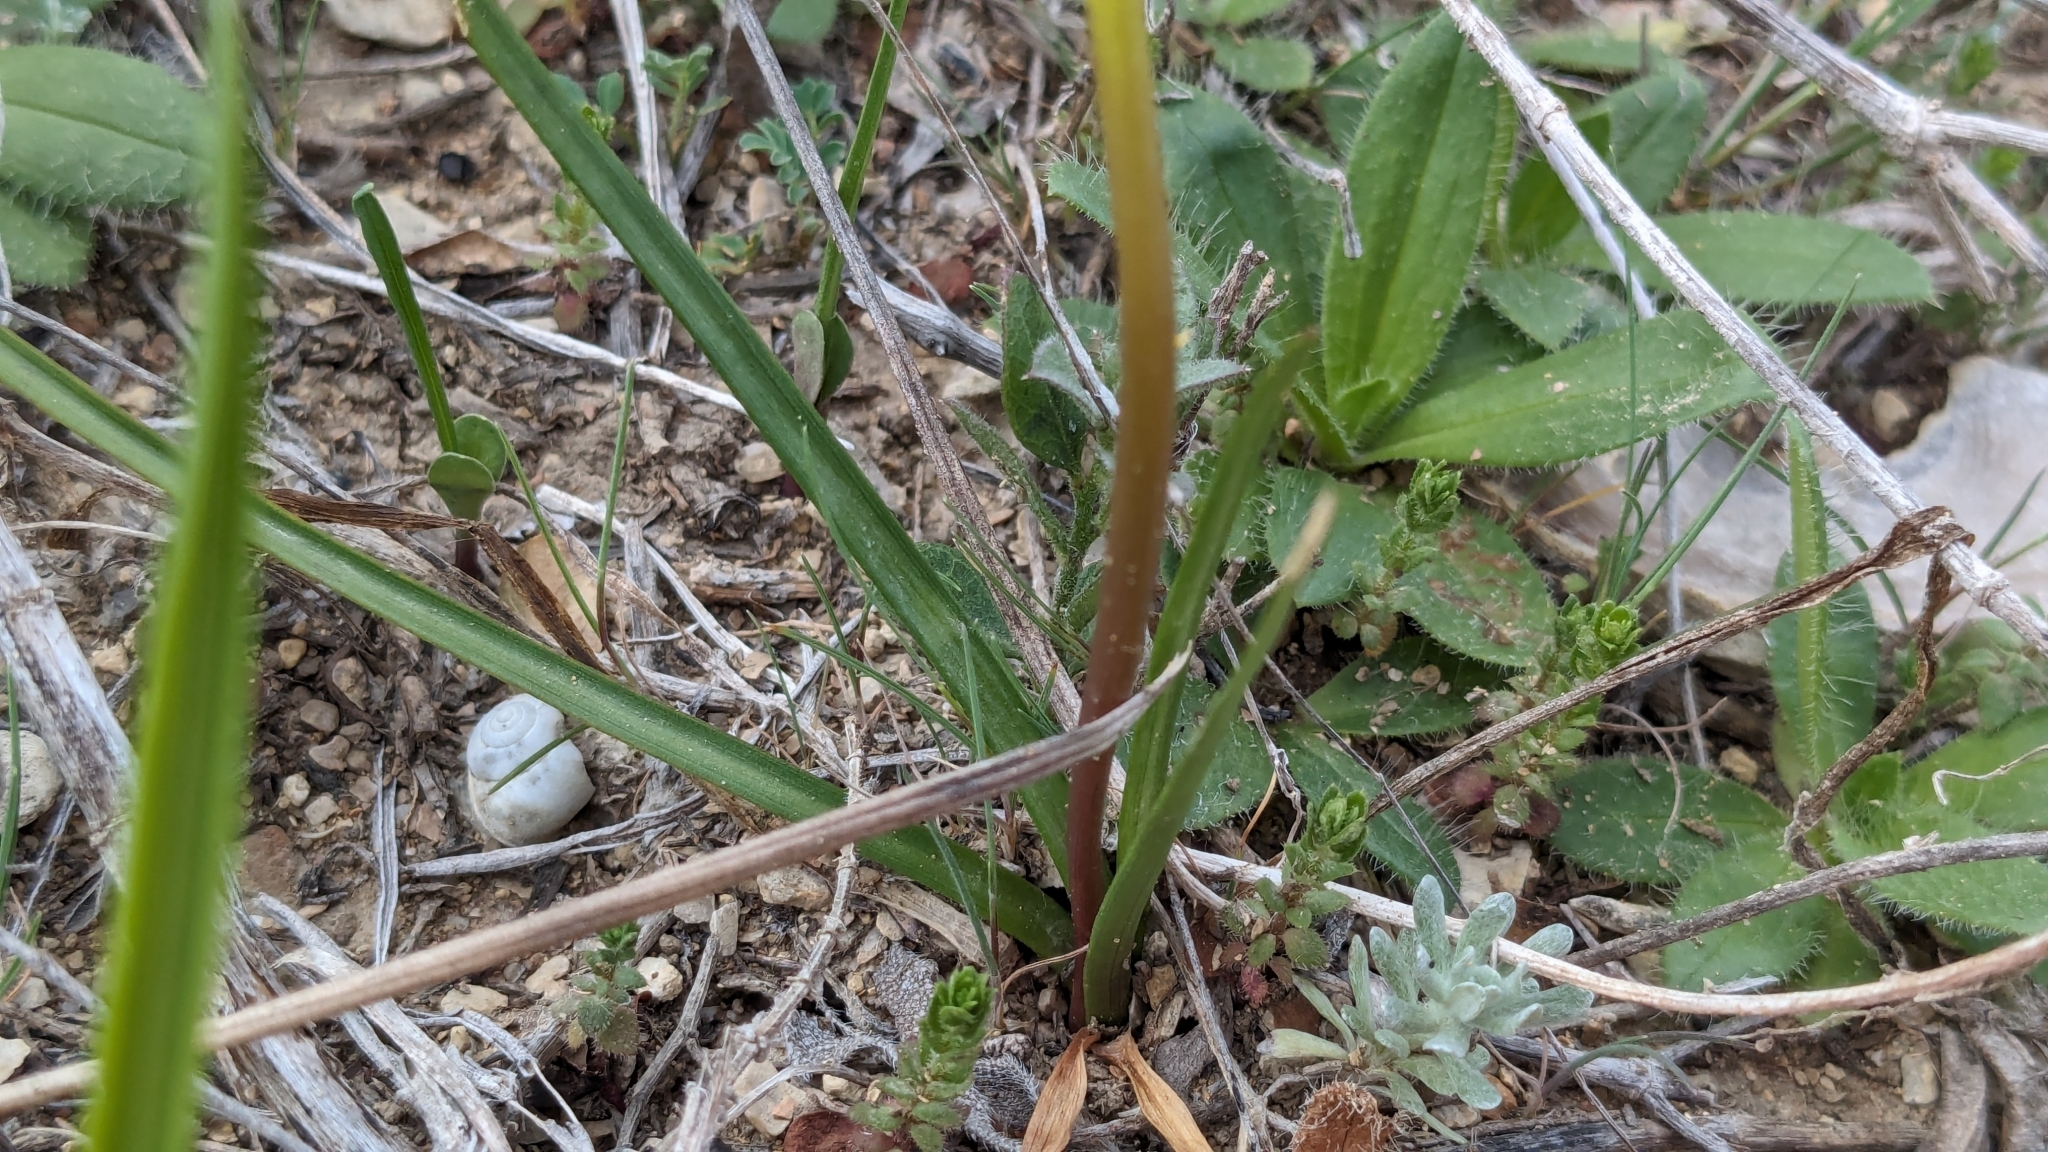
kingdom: Plantae
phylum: Tracheophyta
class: Liliopsida
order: Asparagales
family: Amaryllidaceae
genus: Nothoscordum
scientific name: Nothoscordum bivalve
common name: Crow-poison
